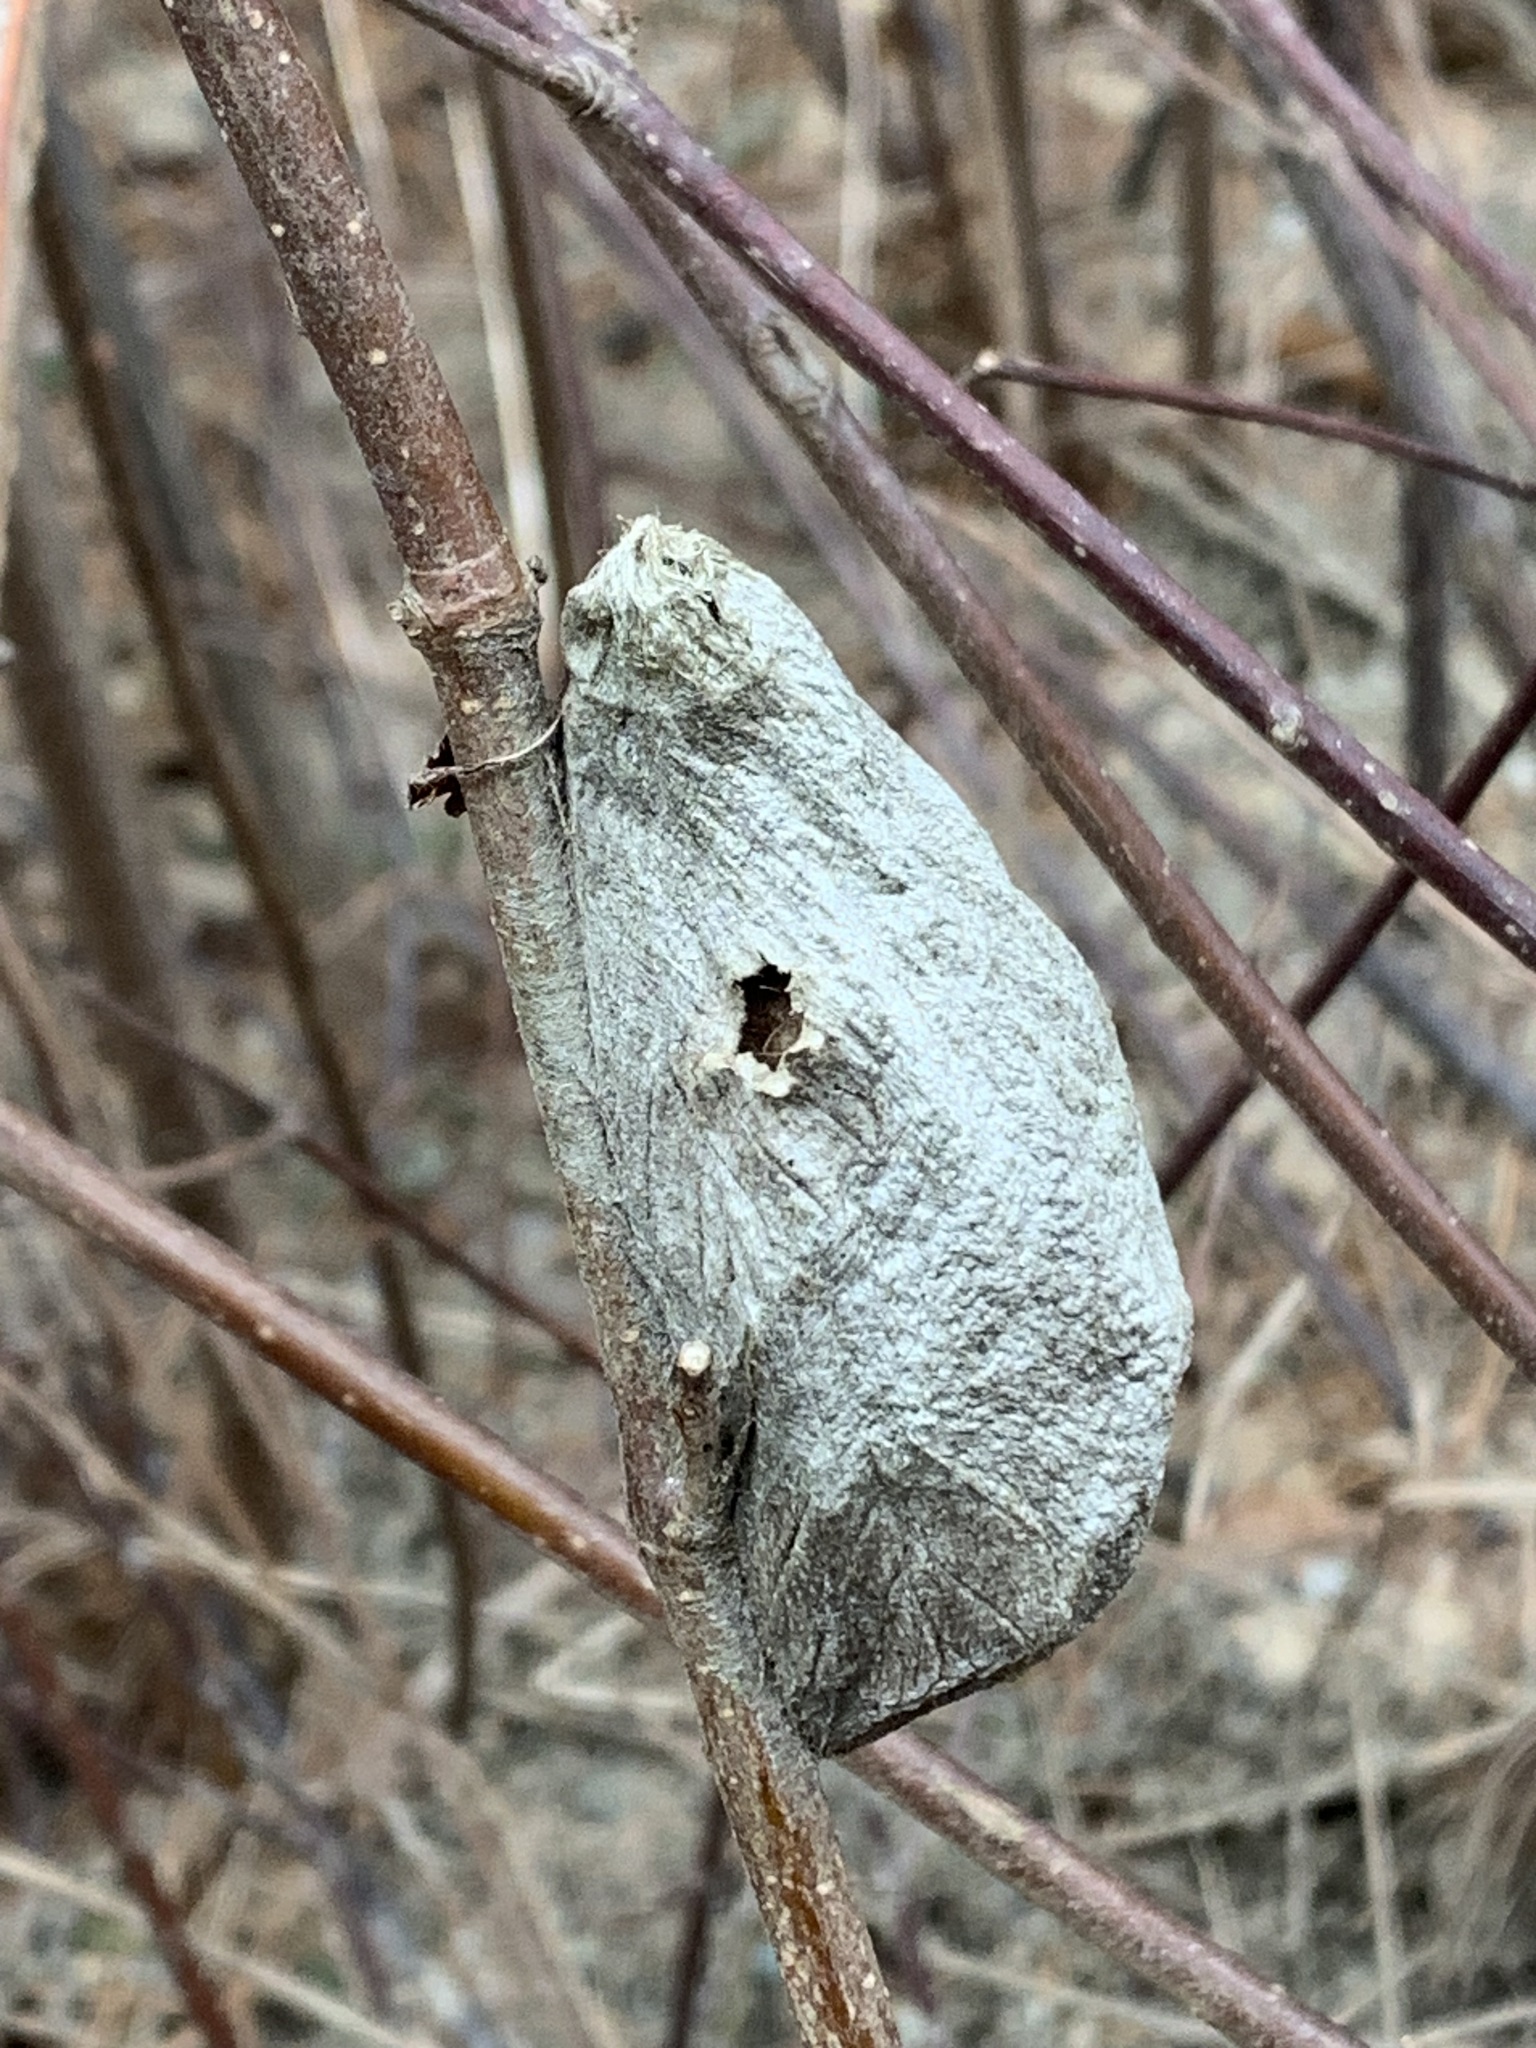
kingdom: Animalia
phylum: Arthropoda
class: Insecta
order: Lepidoptera
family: Saturniidae
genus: Hyalophora
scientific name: Hyalophora cecropia
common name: Cecropia silkmoth
